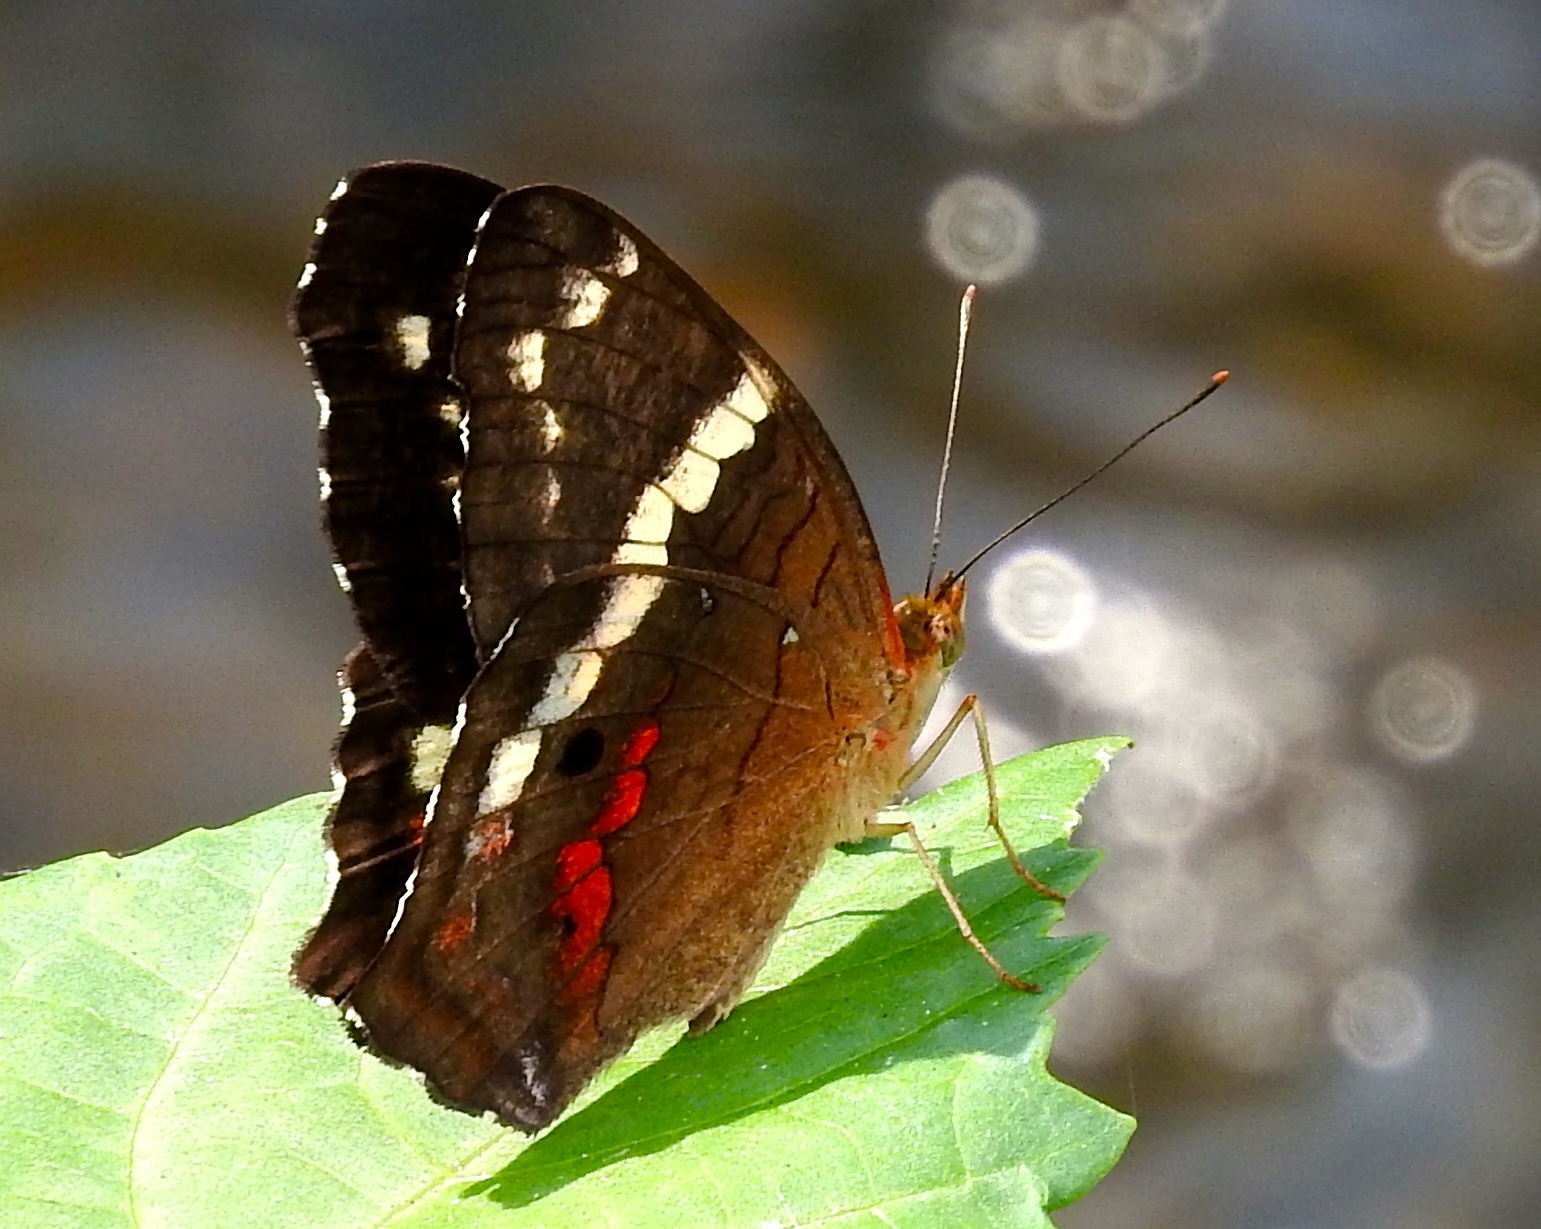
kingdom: Animalia
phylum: Arthropoda
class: Insecta
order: Lepidoptera
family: Nymphalidae
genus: Anartia
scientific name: Anartia fatima
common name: Banded peacock
